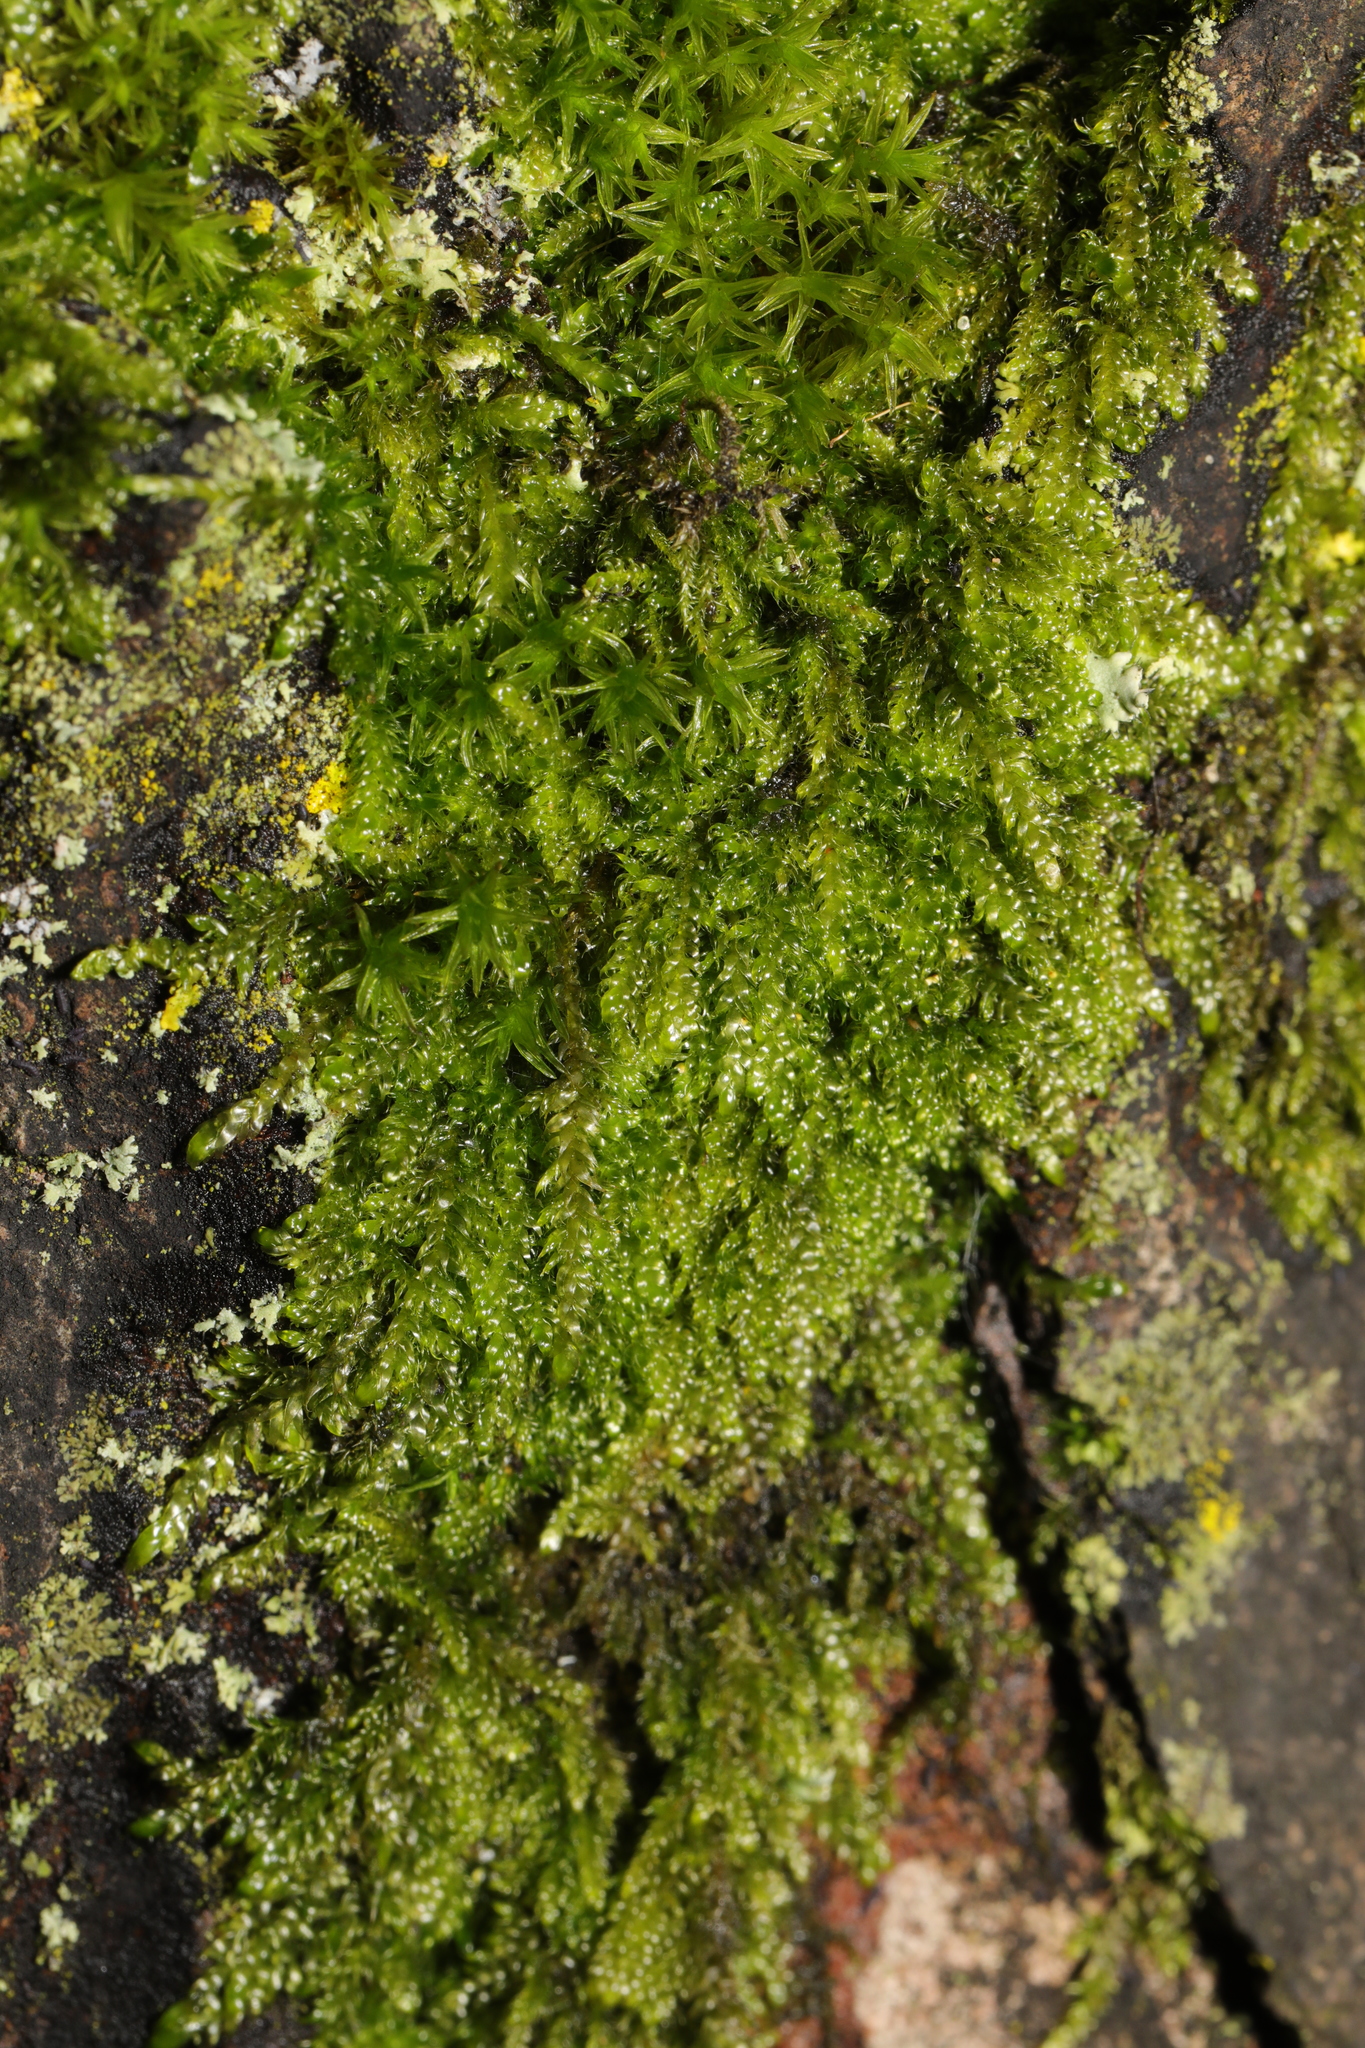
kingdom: Plantae
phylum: Bryophyta
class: Bryopsida
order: Hypnales
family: Hypnaceae
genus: Hypnum
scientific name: Hypnum cupressiforme
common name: Cypress-leaved plait-moss
